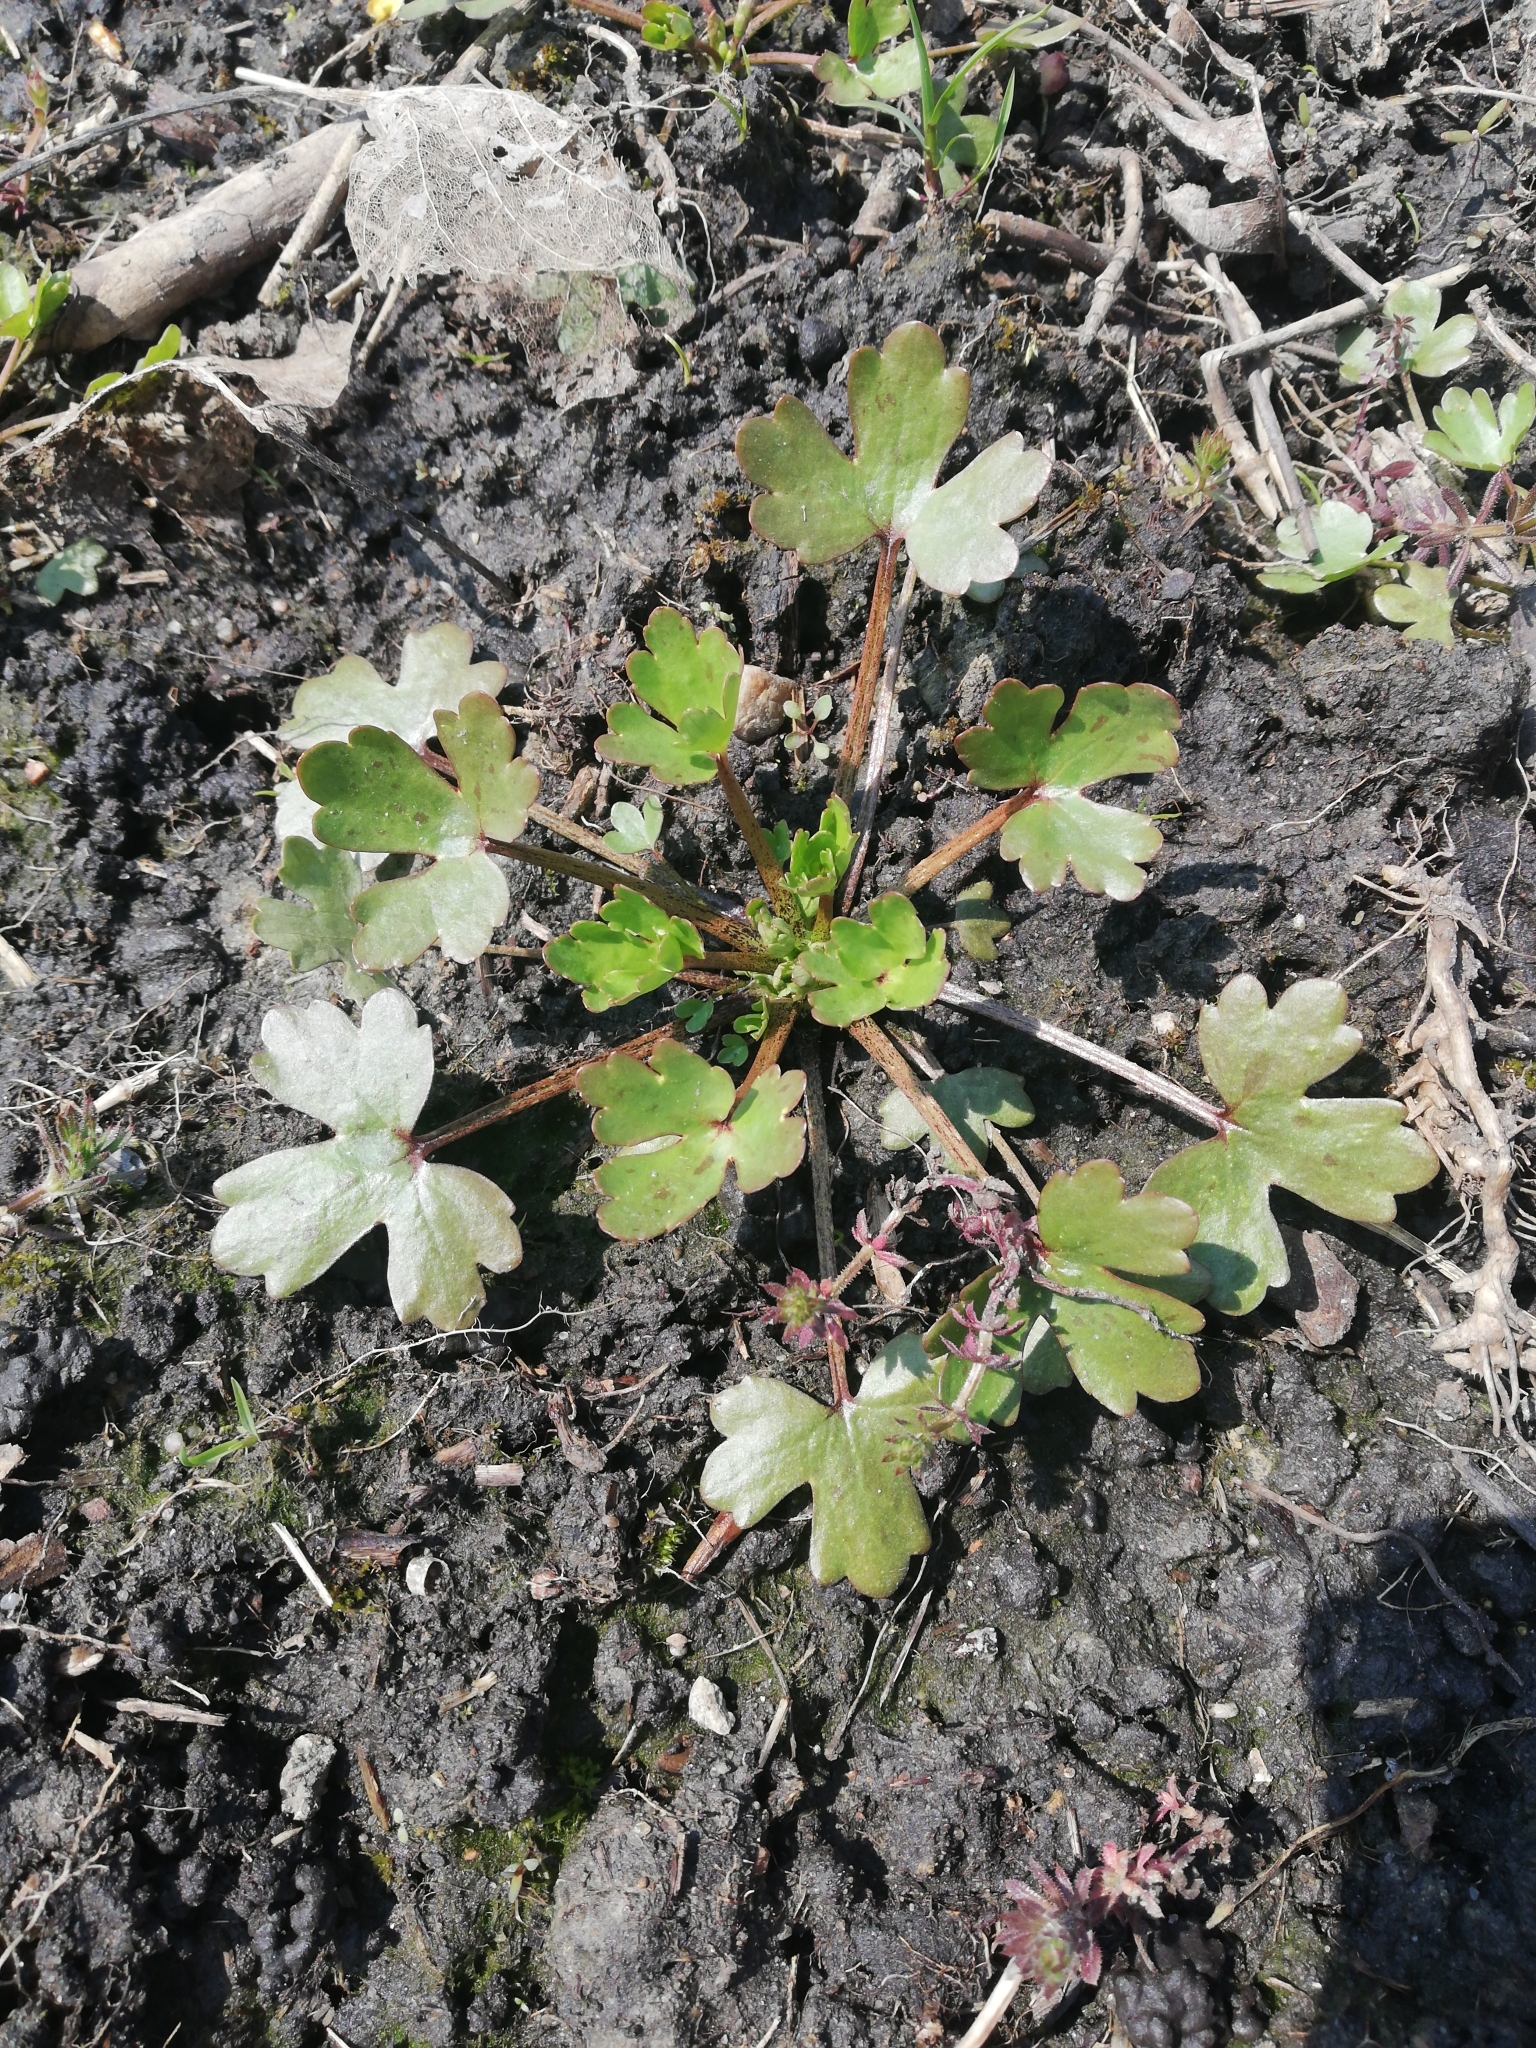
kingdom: Plantae
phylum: Tracheophyta
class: Magnoliopsida
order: Ranunculales
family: Ranunculaceae
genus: Ranunculus
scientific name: Ranunculus sceleratus
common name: Celery-leaved buttercup
